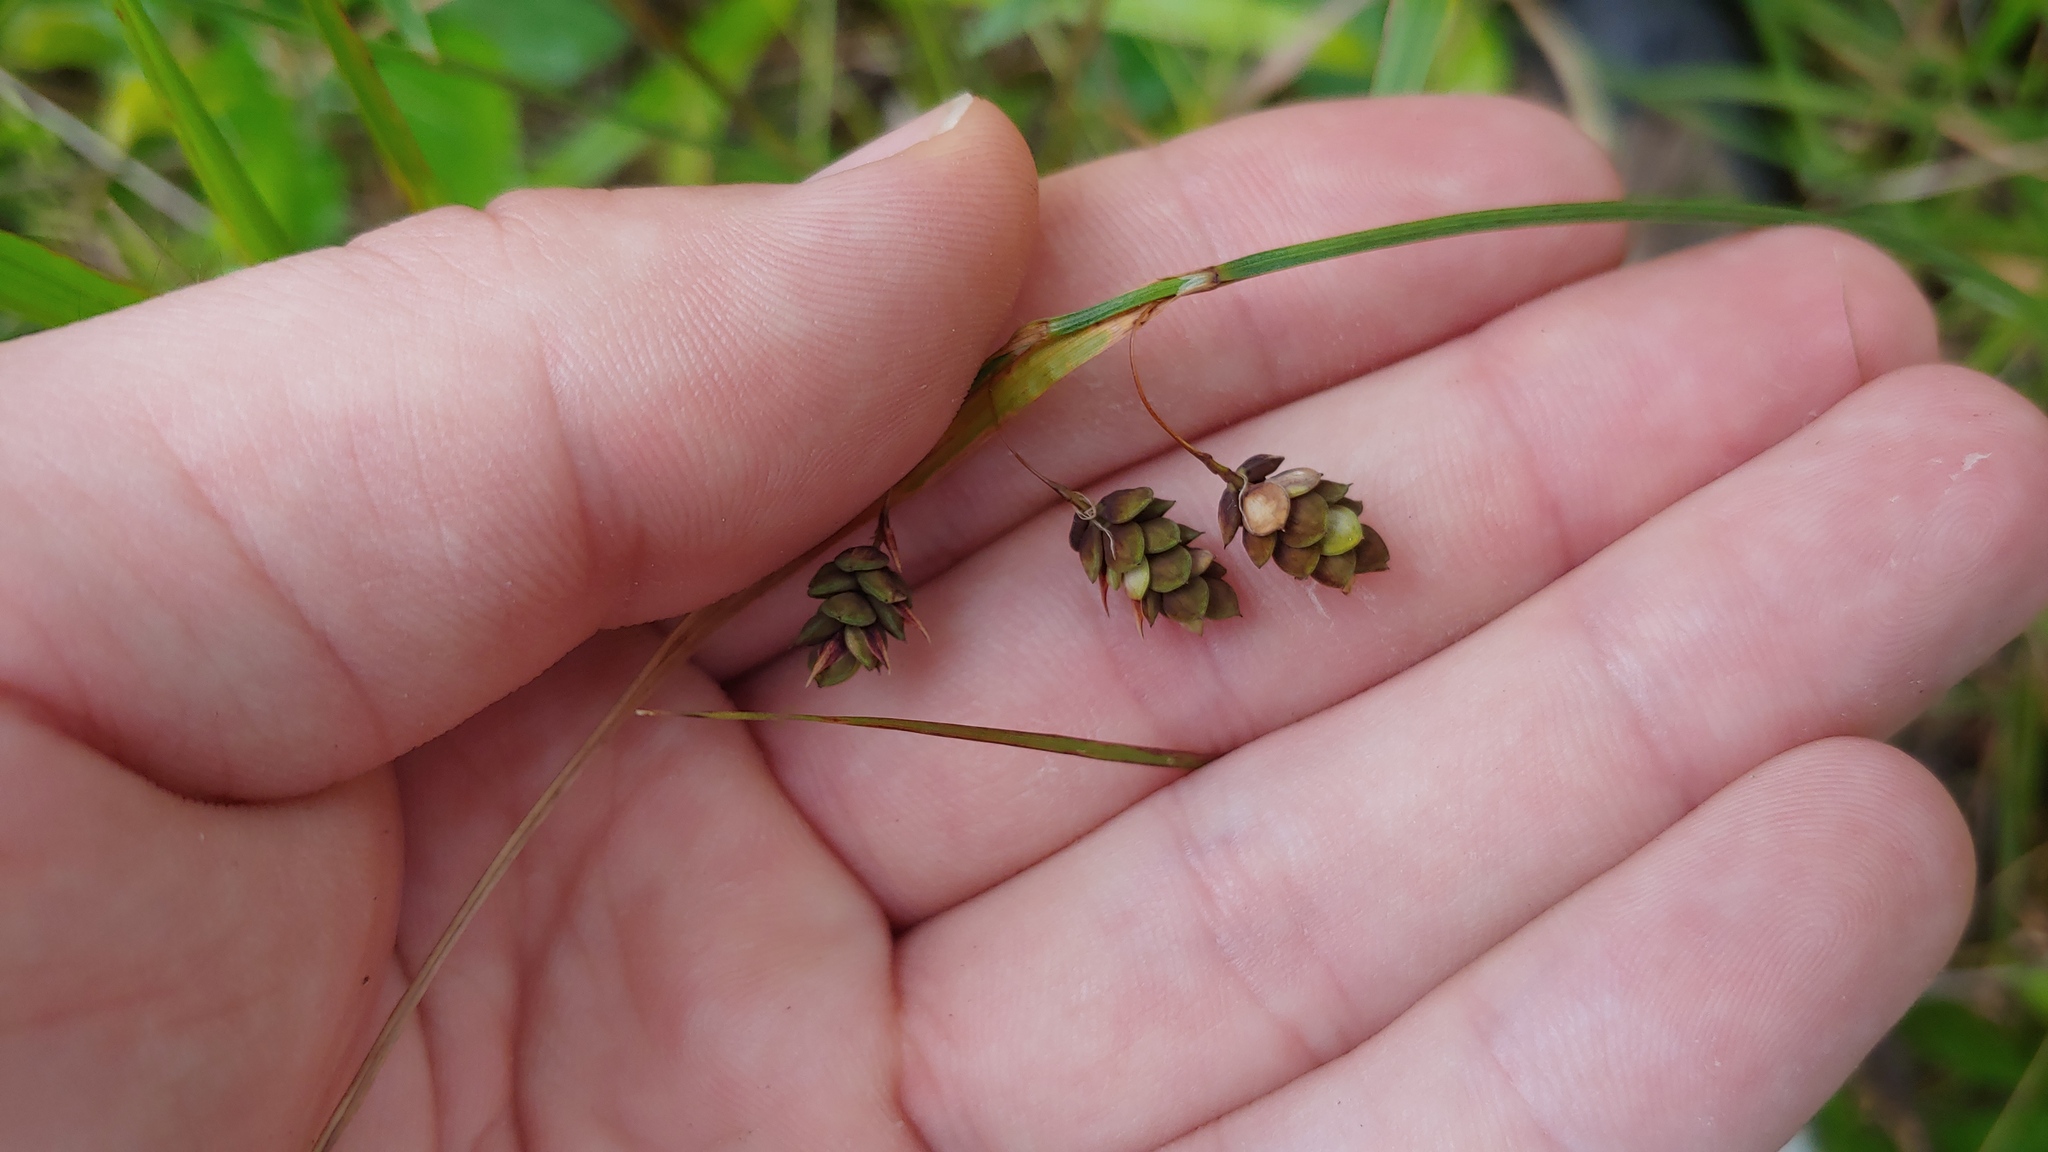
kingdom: Plantae
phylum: Tracheophyta
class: Liliopsida
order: Poales
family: Cyperaceae
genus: Carex
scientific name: Carex magellanica
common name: Bog sedge
